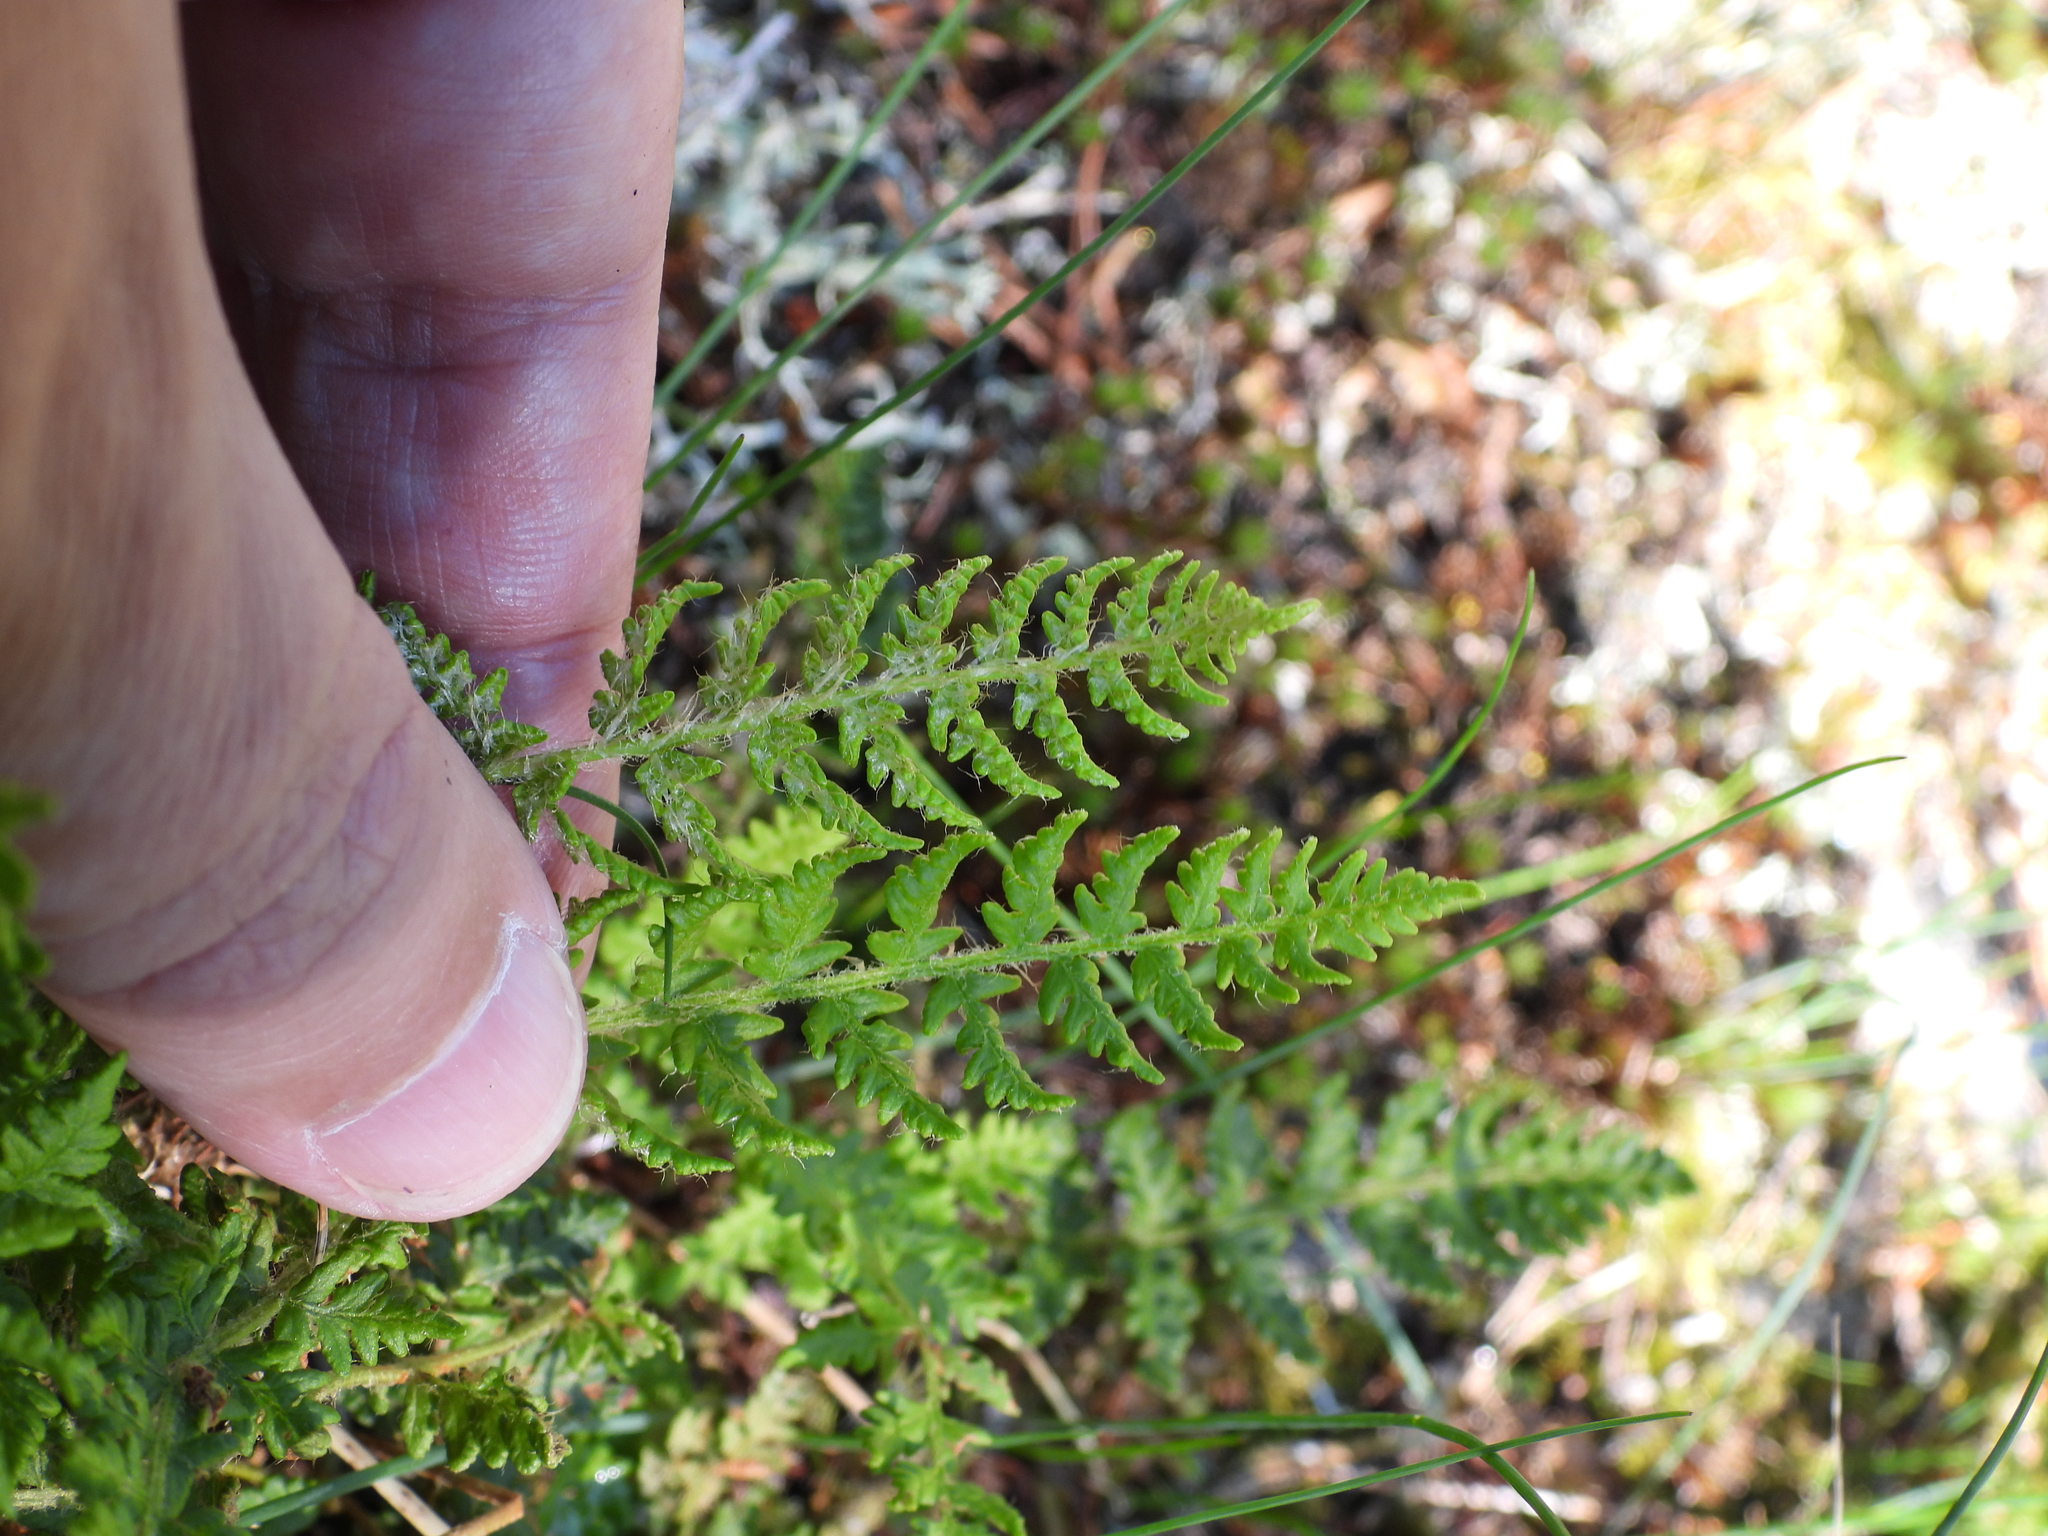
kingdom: Plantae
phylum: Tracheophyta
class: Polypodiopsida
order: Polypodiales
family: Woodsiaceae
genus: Woodsia
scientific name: Woodsia ilvensis
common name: Fragrant woodsia
